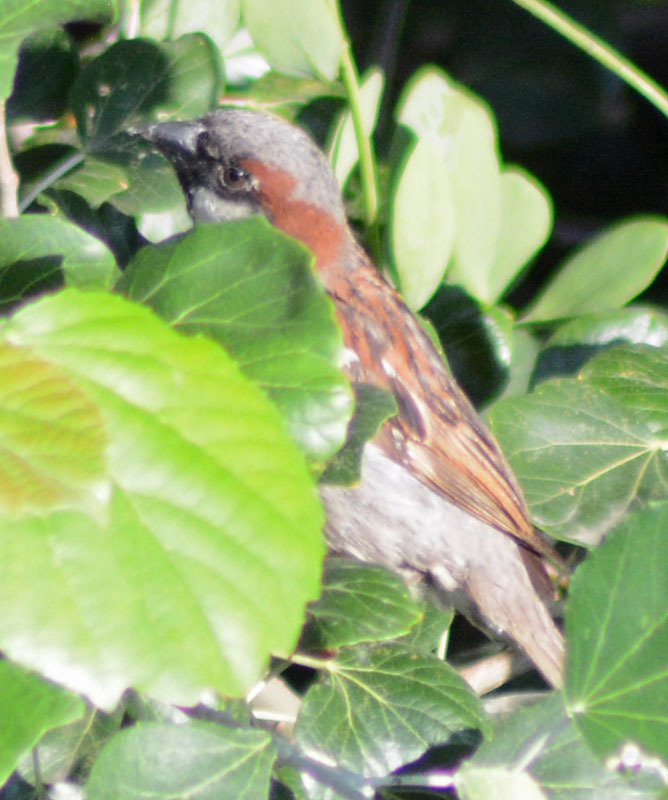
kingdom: Animalia
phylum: Chordata
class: Aves
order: Passeriformes
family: Passeridae
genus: Passer
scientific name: Passer domesticus
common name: House sparrow
